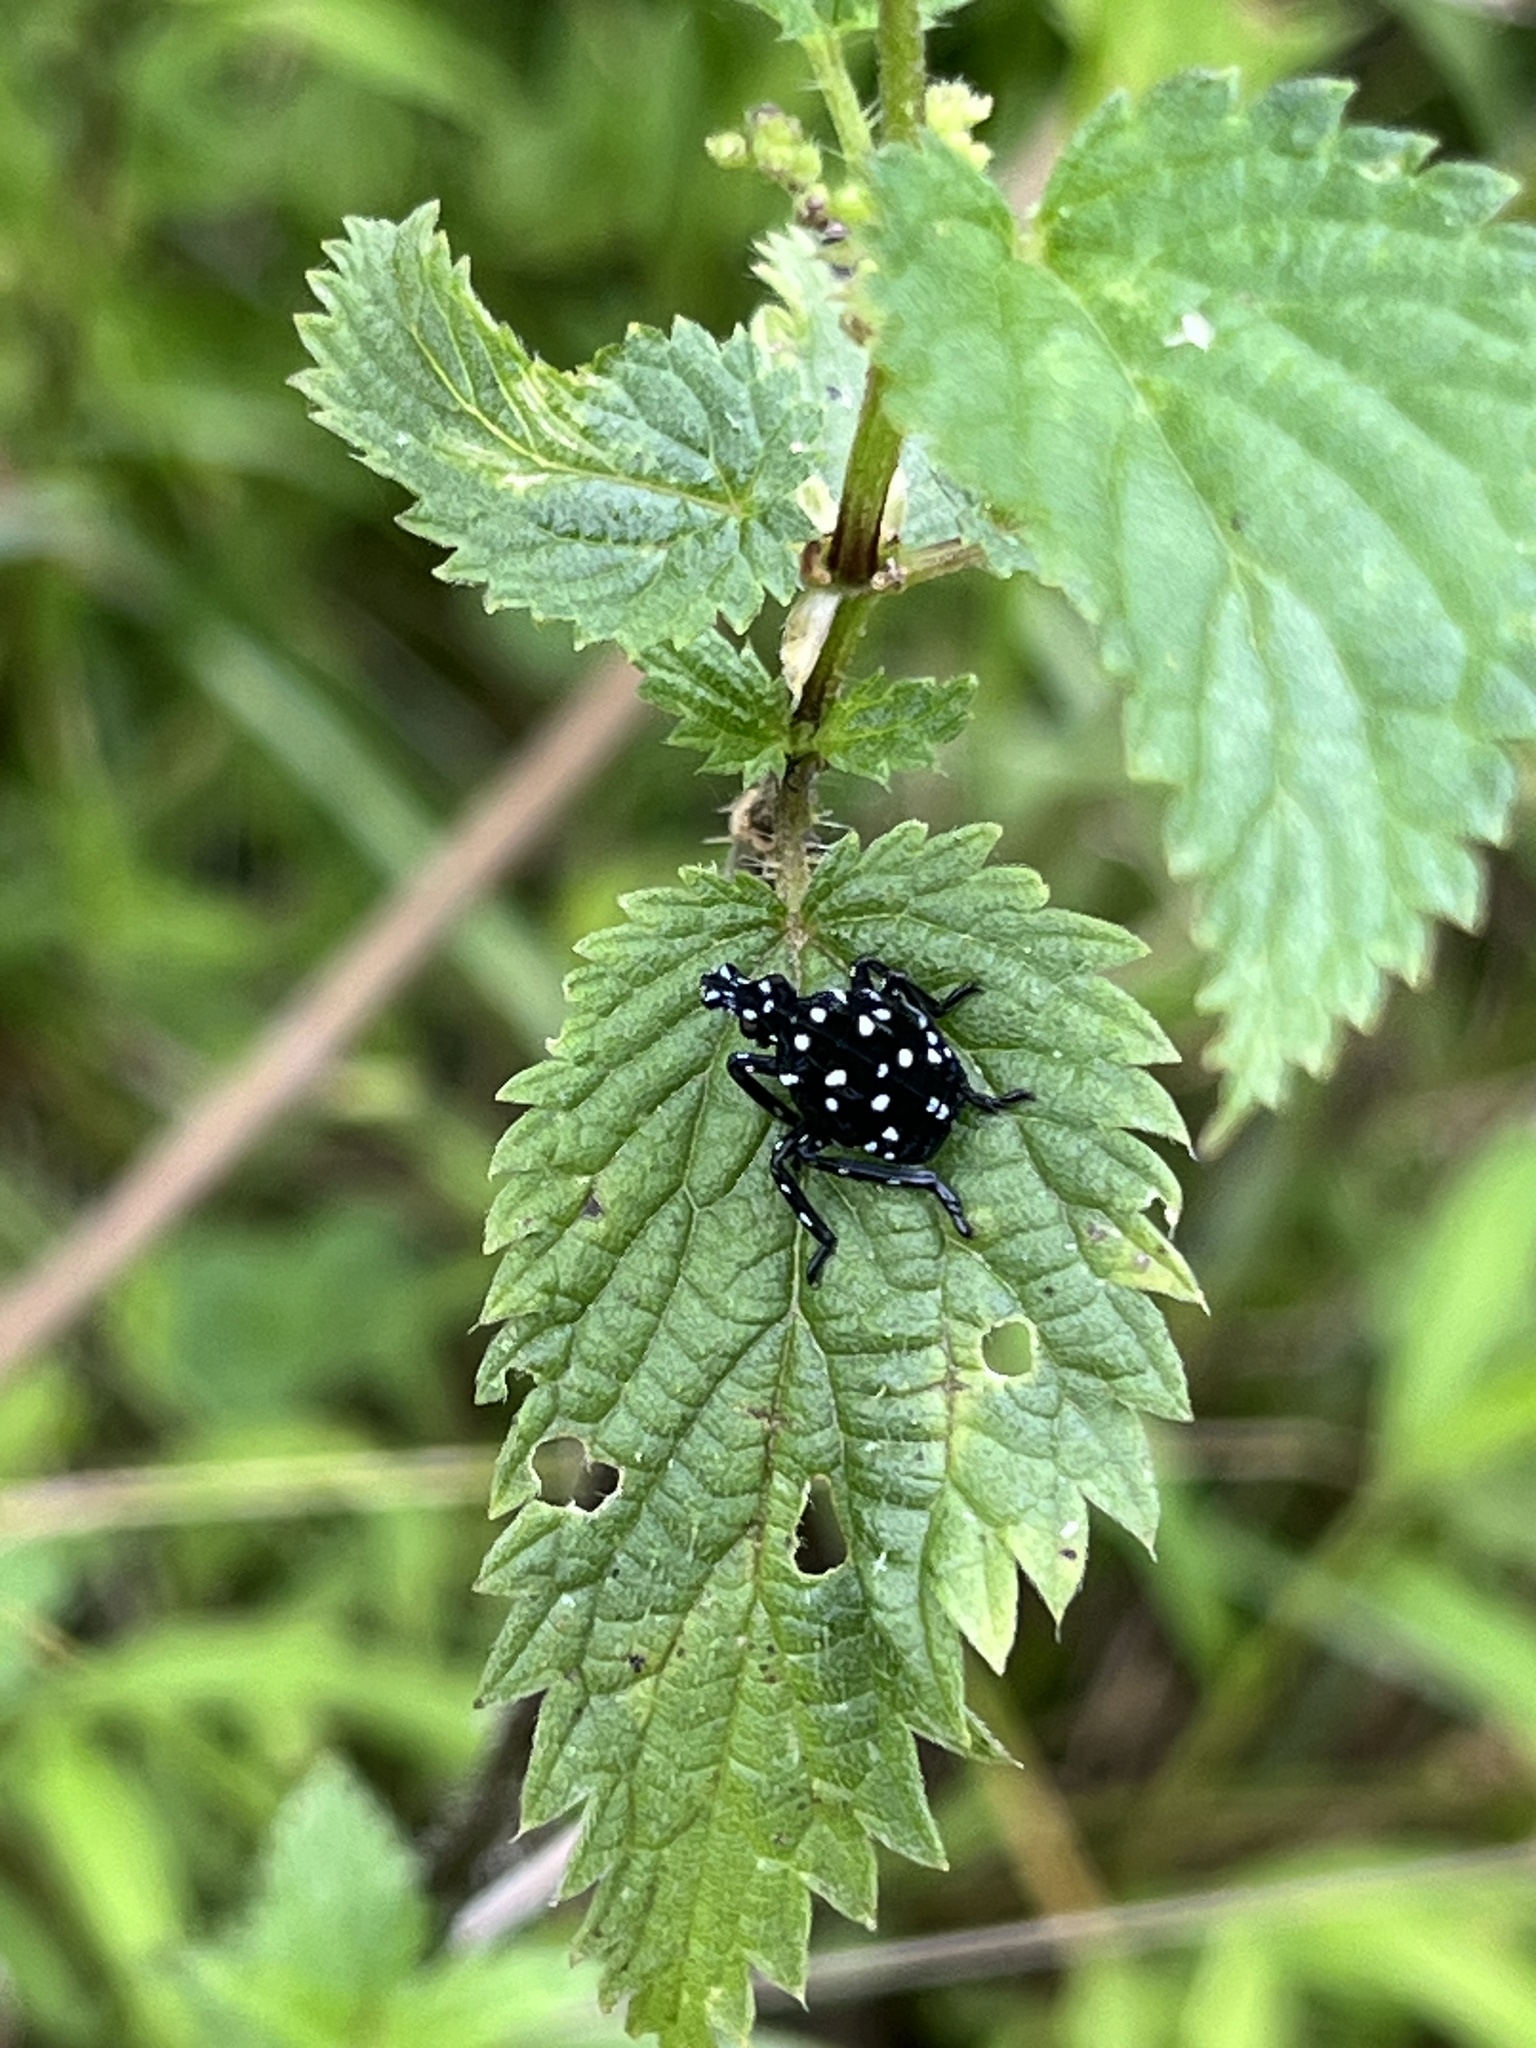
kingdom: Animalia
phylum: Arthropoda
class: Insecta
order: Hemiptera
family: Fulgoridae
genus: Lycorma
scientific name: Lycorma delicatula
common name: Spotted lanternfly
